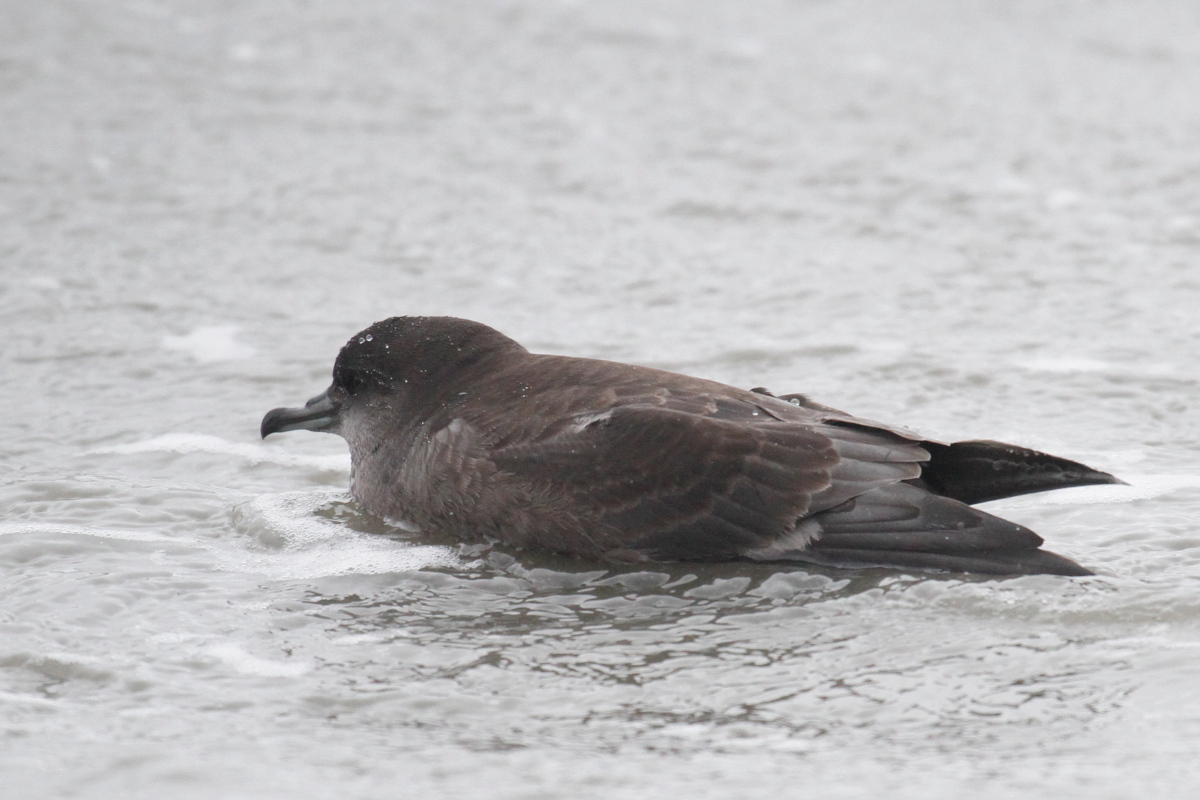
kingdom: Animalia
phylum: Chordata
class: Aves
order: Procellariiformes
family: Procellariidae
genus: Puffinus
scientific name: Puffinus tenuirostris
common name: Short-tailed shearwater
